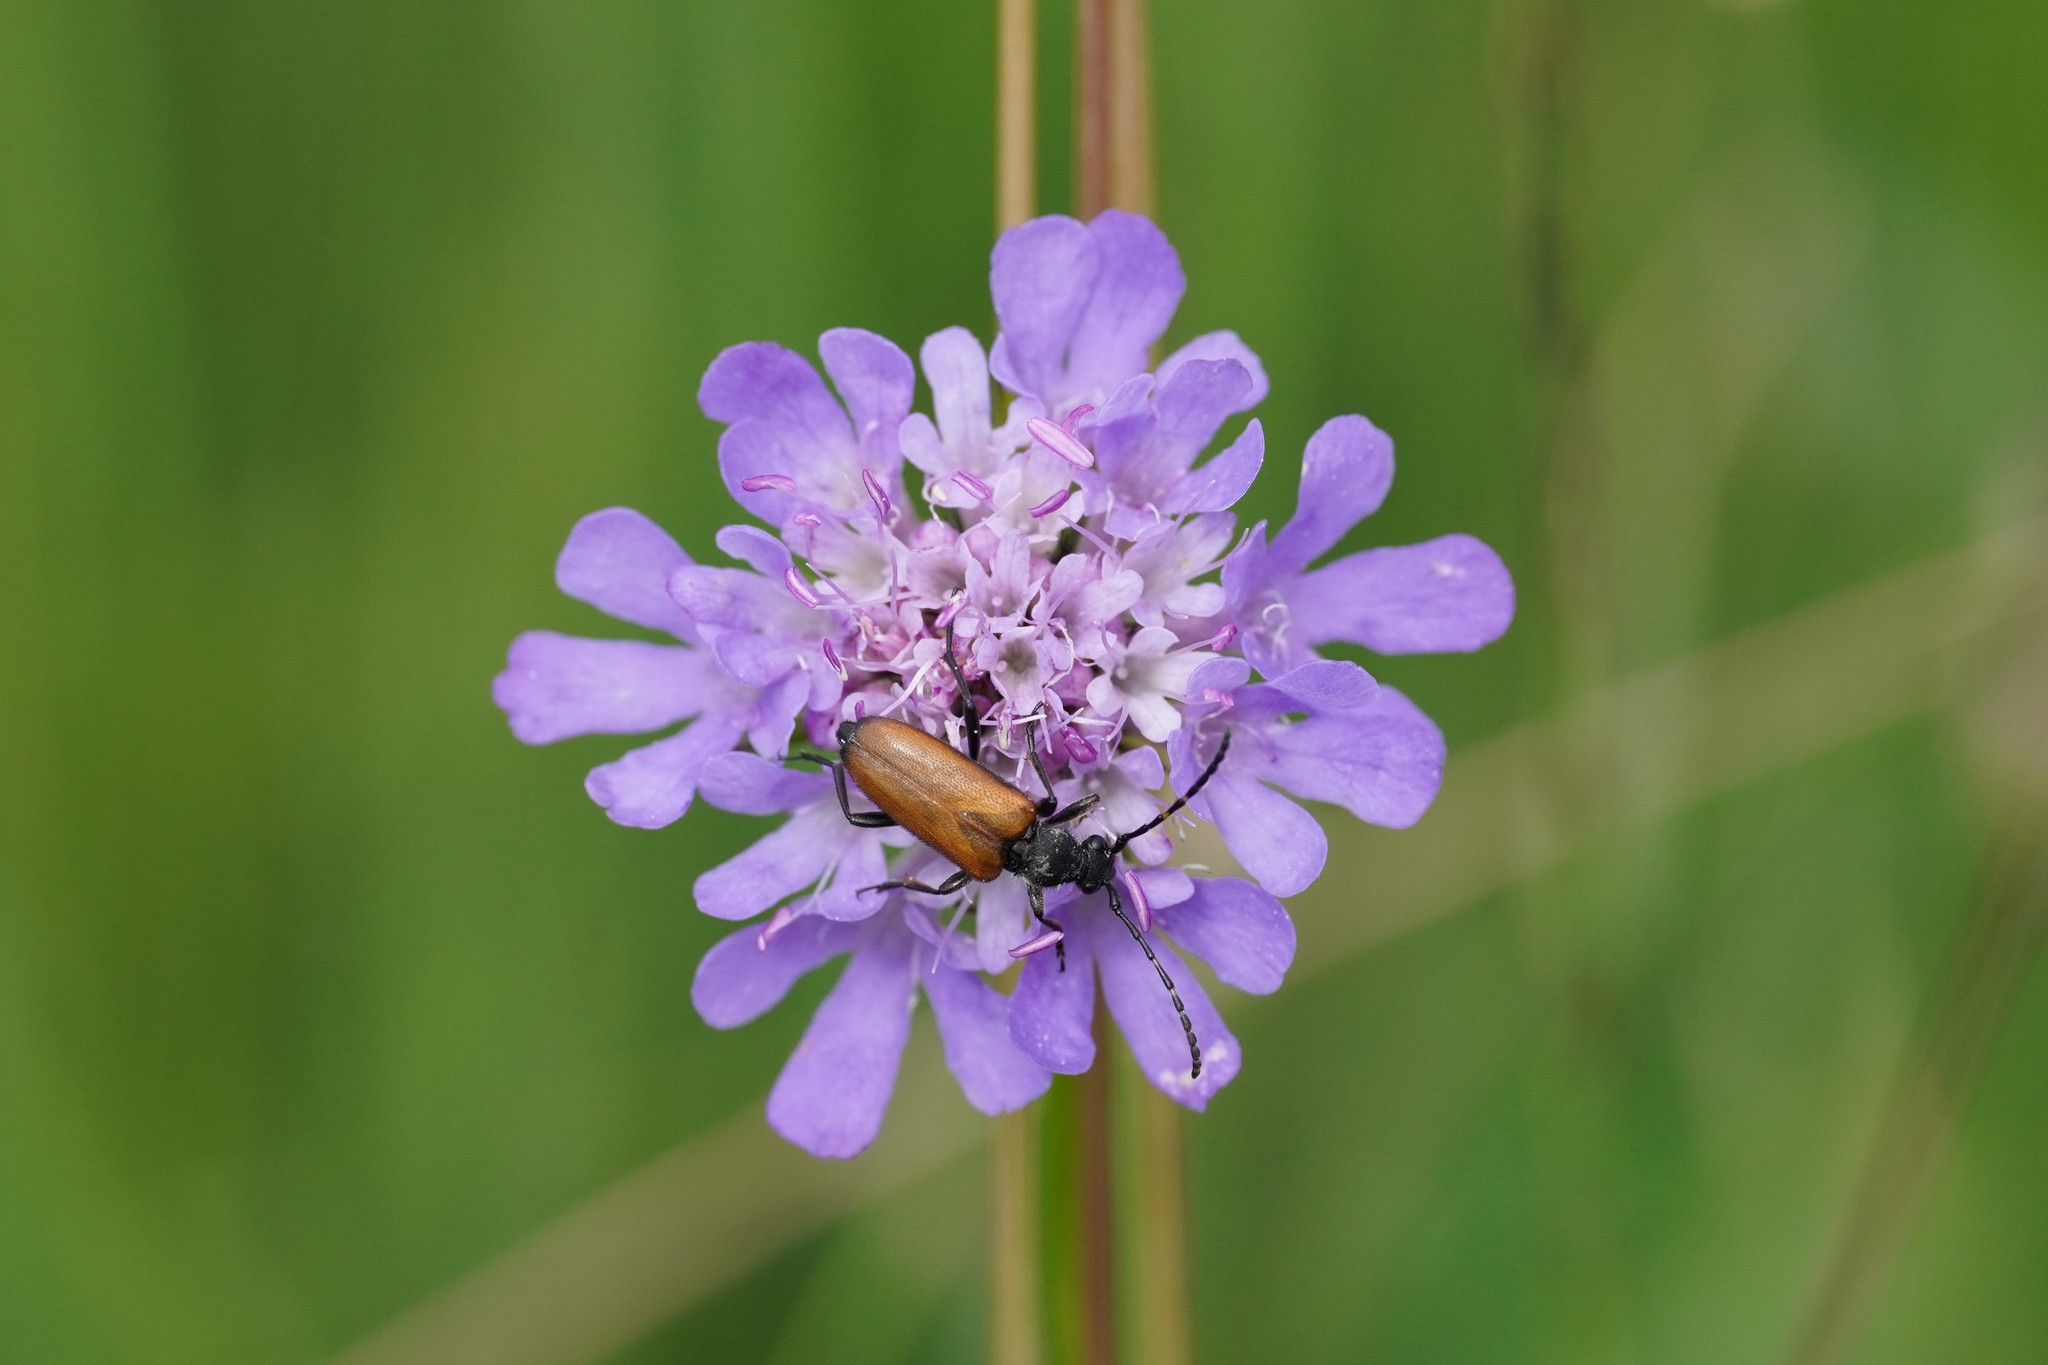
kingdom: Animalia
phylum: Arthropoda
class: Insecta
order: Coleoptera
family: Cerambycidae
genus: Paracorymbia
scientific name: Paracorymbia maculicornis
